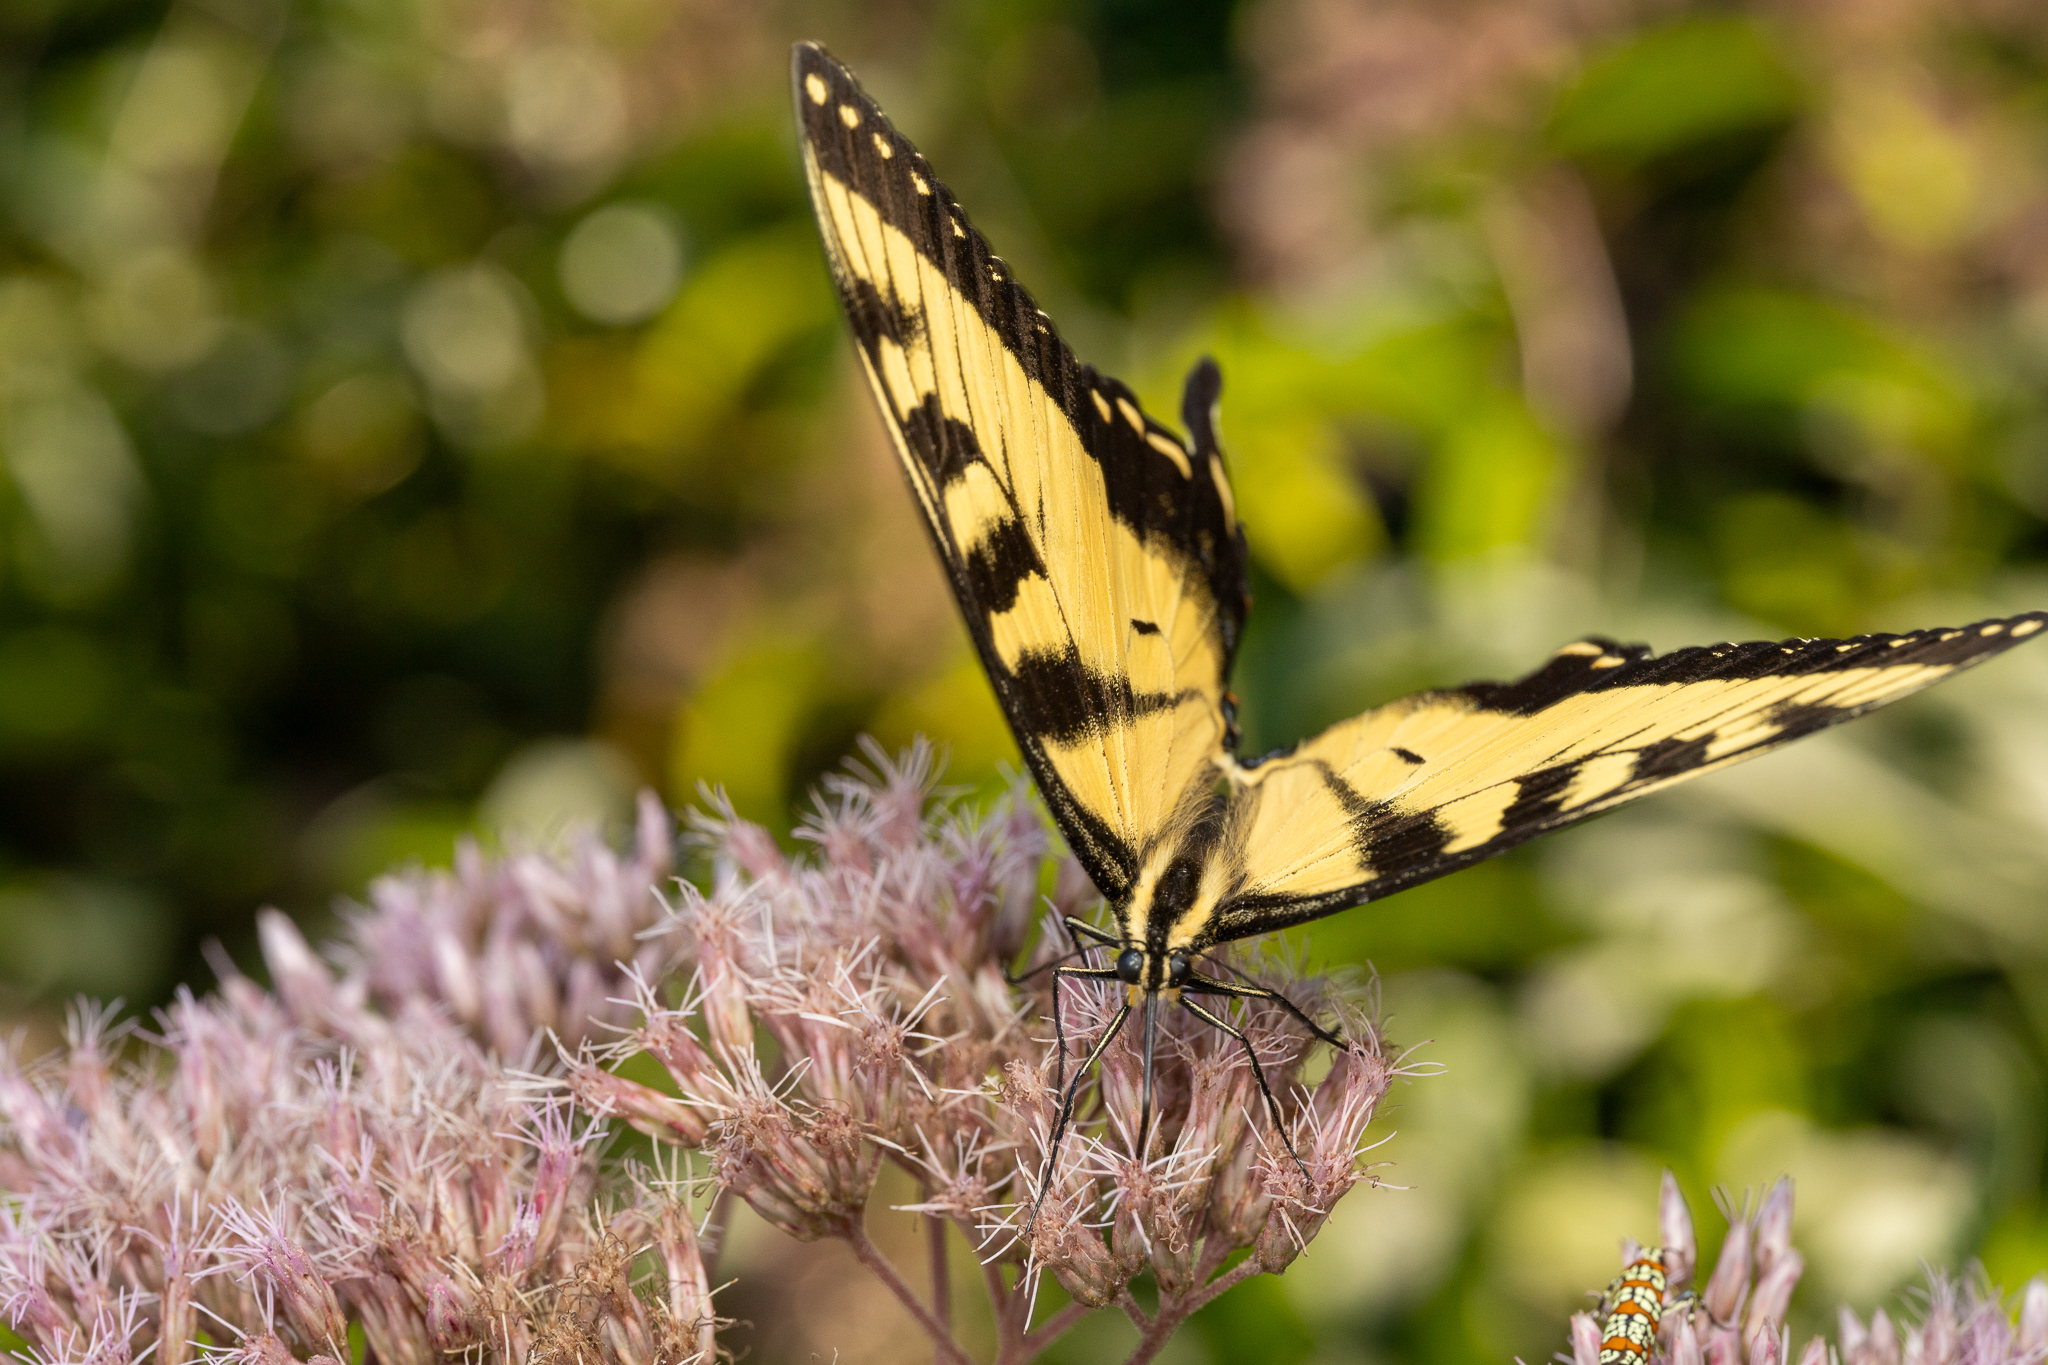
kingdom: Animalia
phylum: Arthropoda
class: Insecta
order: Lepidoptera
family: Papilionidae
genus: Papilio
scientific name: Papilio glaucus
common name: Tiger swallowtail
